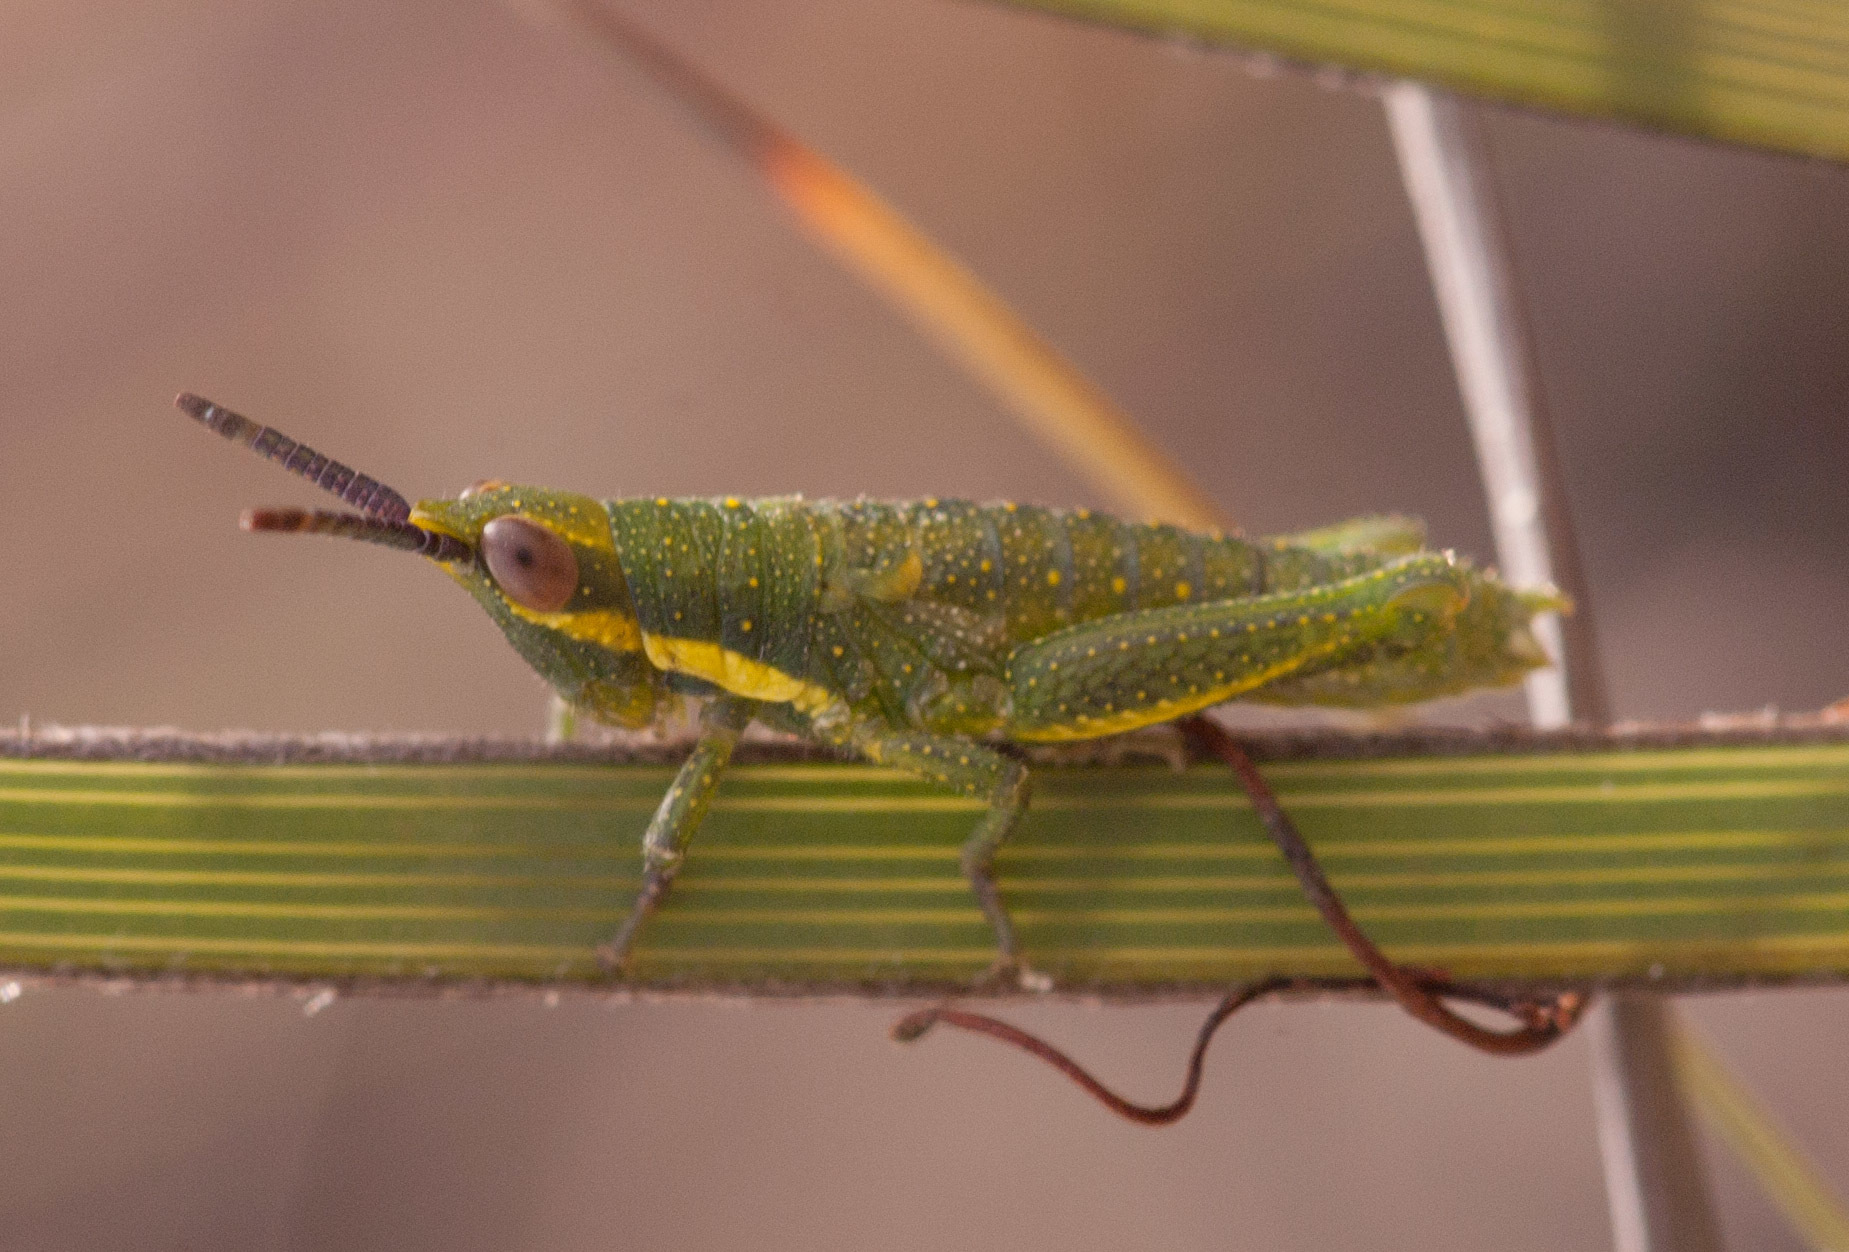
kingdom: Animalia
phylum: Arthropoda
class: Insecta
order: Orthoptera
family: Pyrgomorphidae
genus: Monistria
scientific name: Monistria discrepans
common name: Common pyrgomorph
